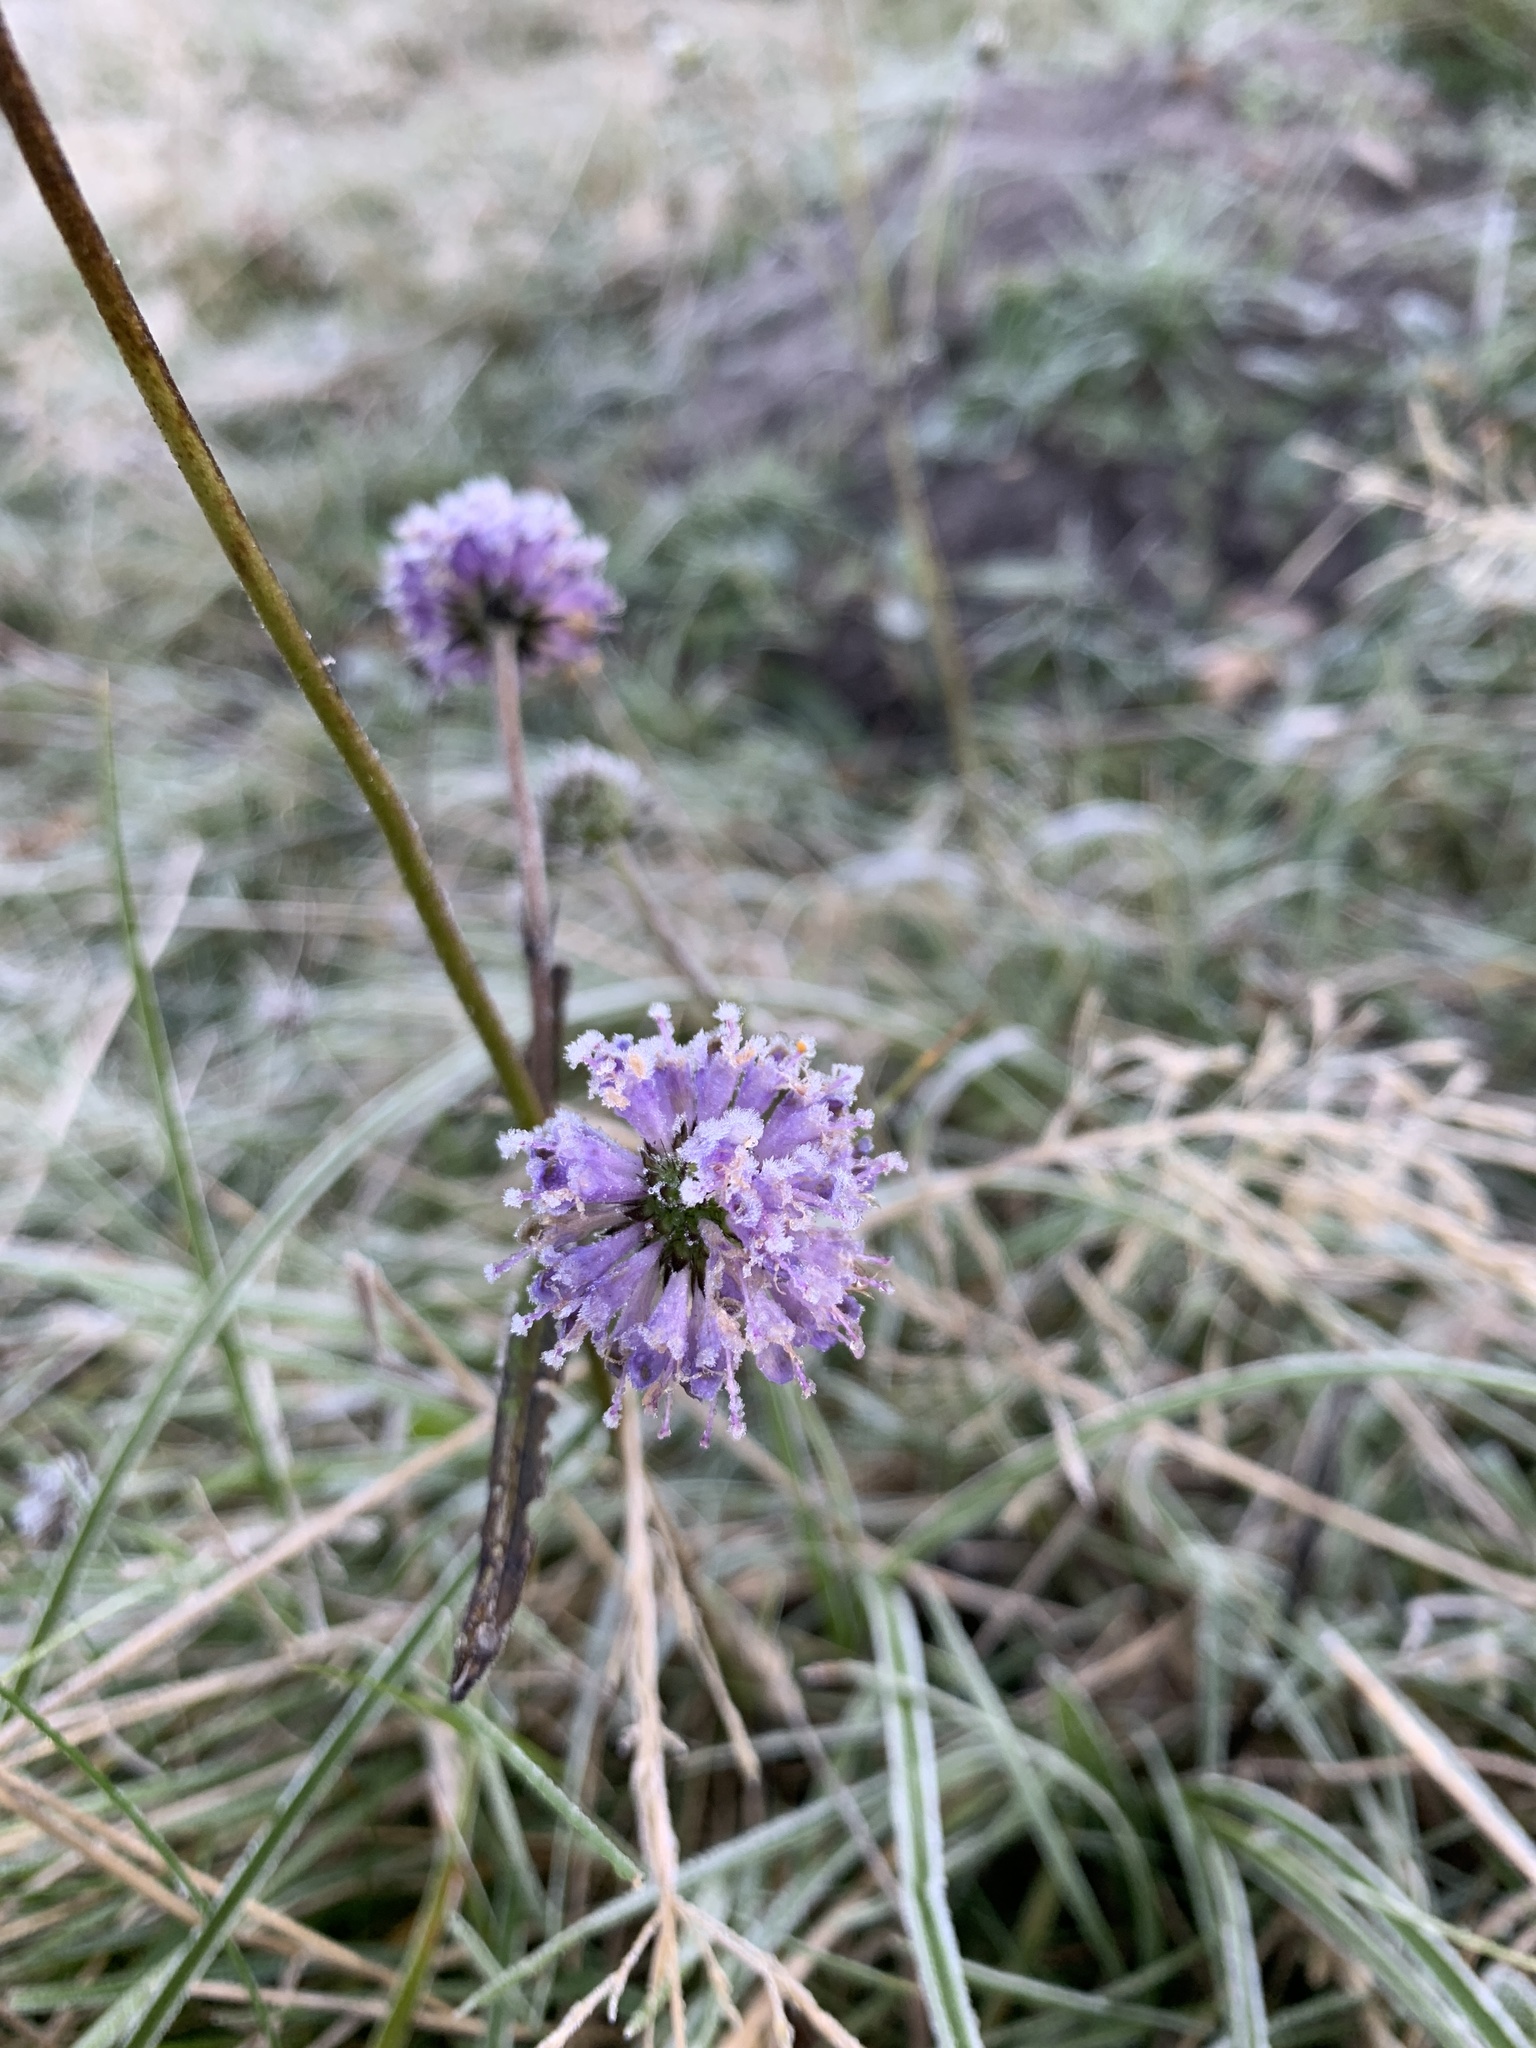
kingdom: Plantae
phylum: Tracheophyta
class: Magnoliopsida
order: Dipsacales
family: Caprifoliaceae
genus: Succisa
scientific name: Succisa pratensis
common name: Devil's-bit
